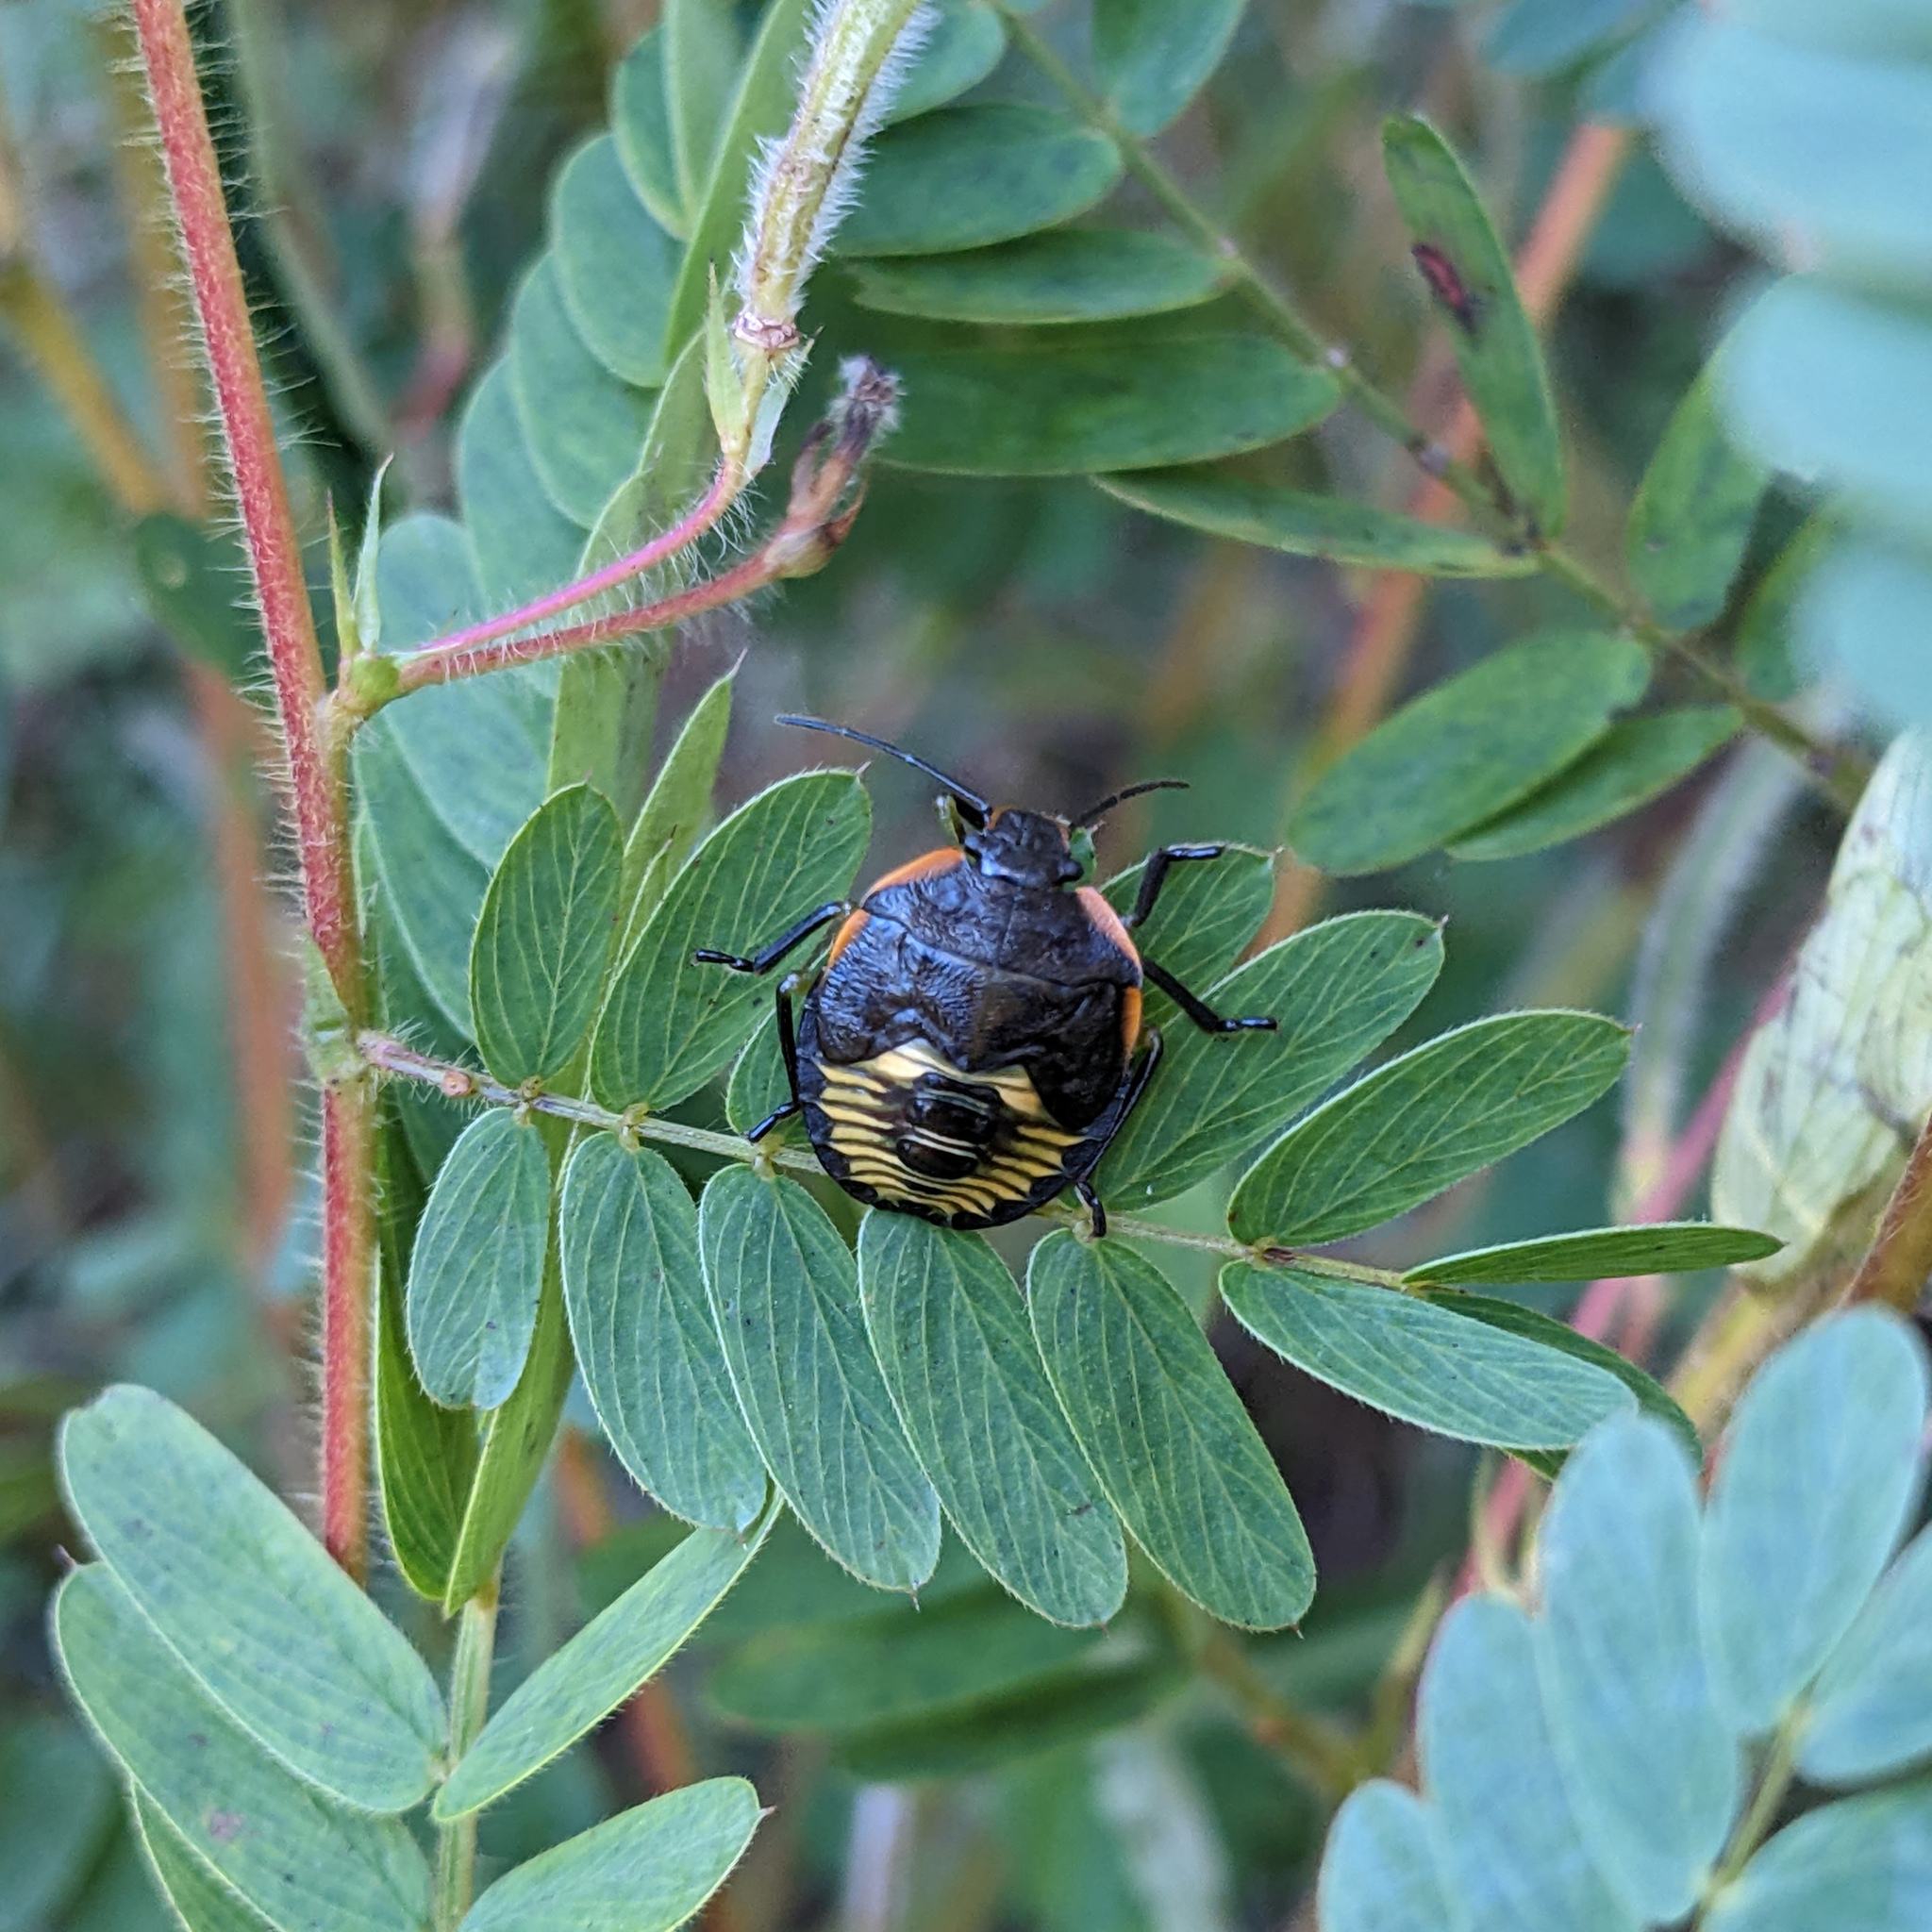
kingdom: Animalia
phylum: Arthropoda
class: Insecta
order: Hemiptera
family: Pentatomidae
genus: Chinavia
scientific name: Chinavia hilaris
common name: Green stink bug
